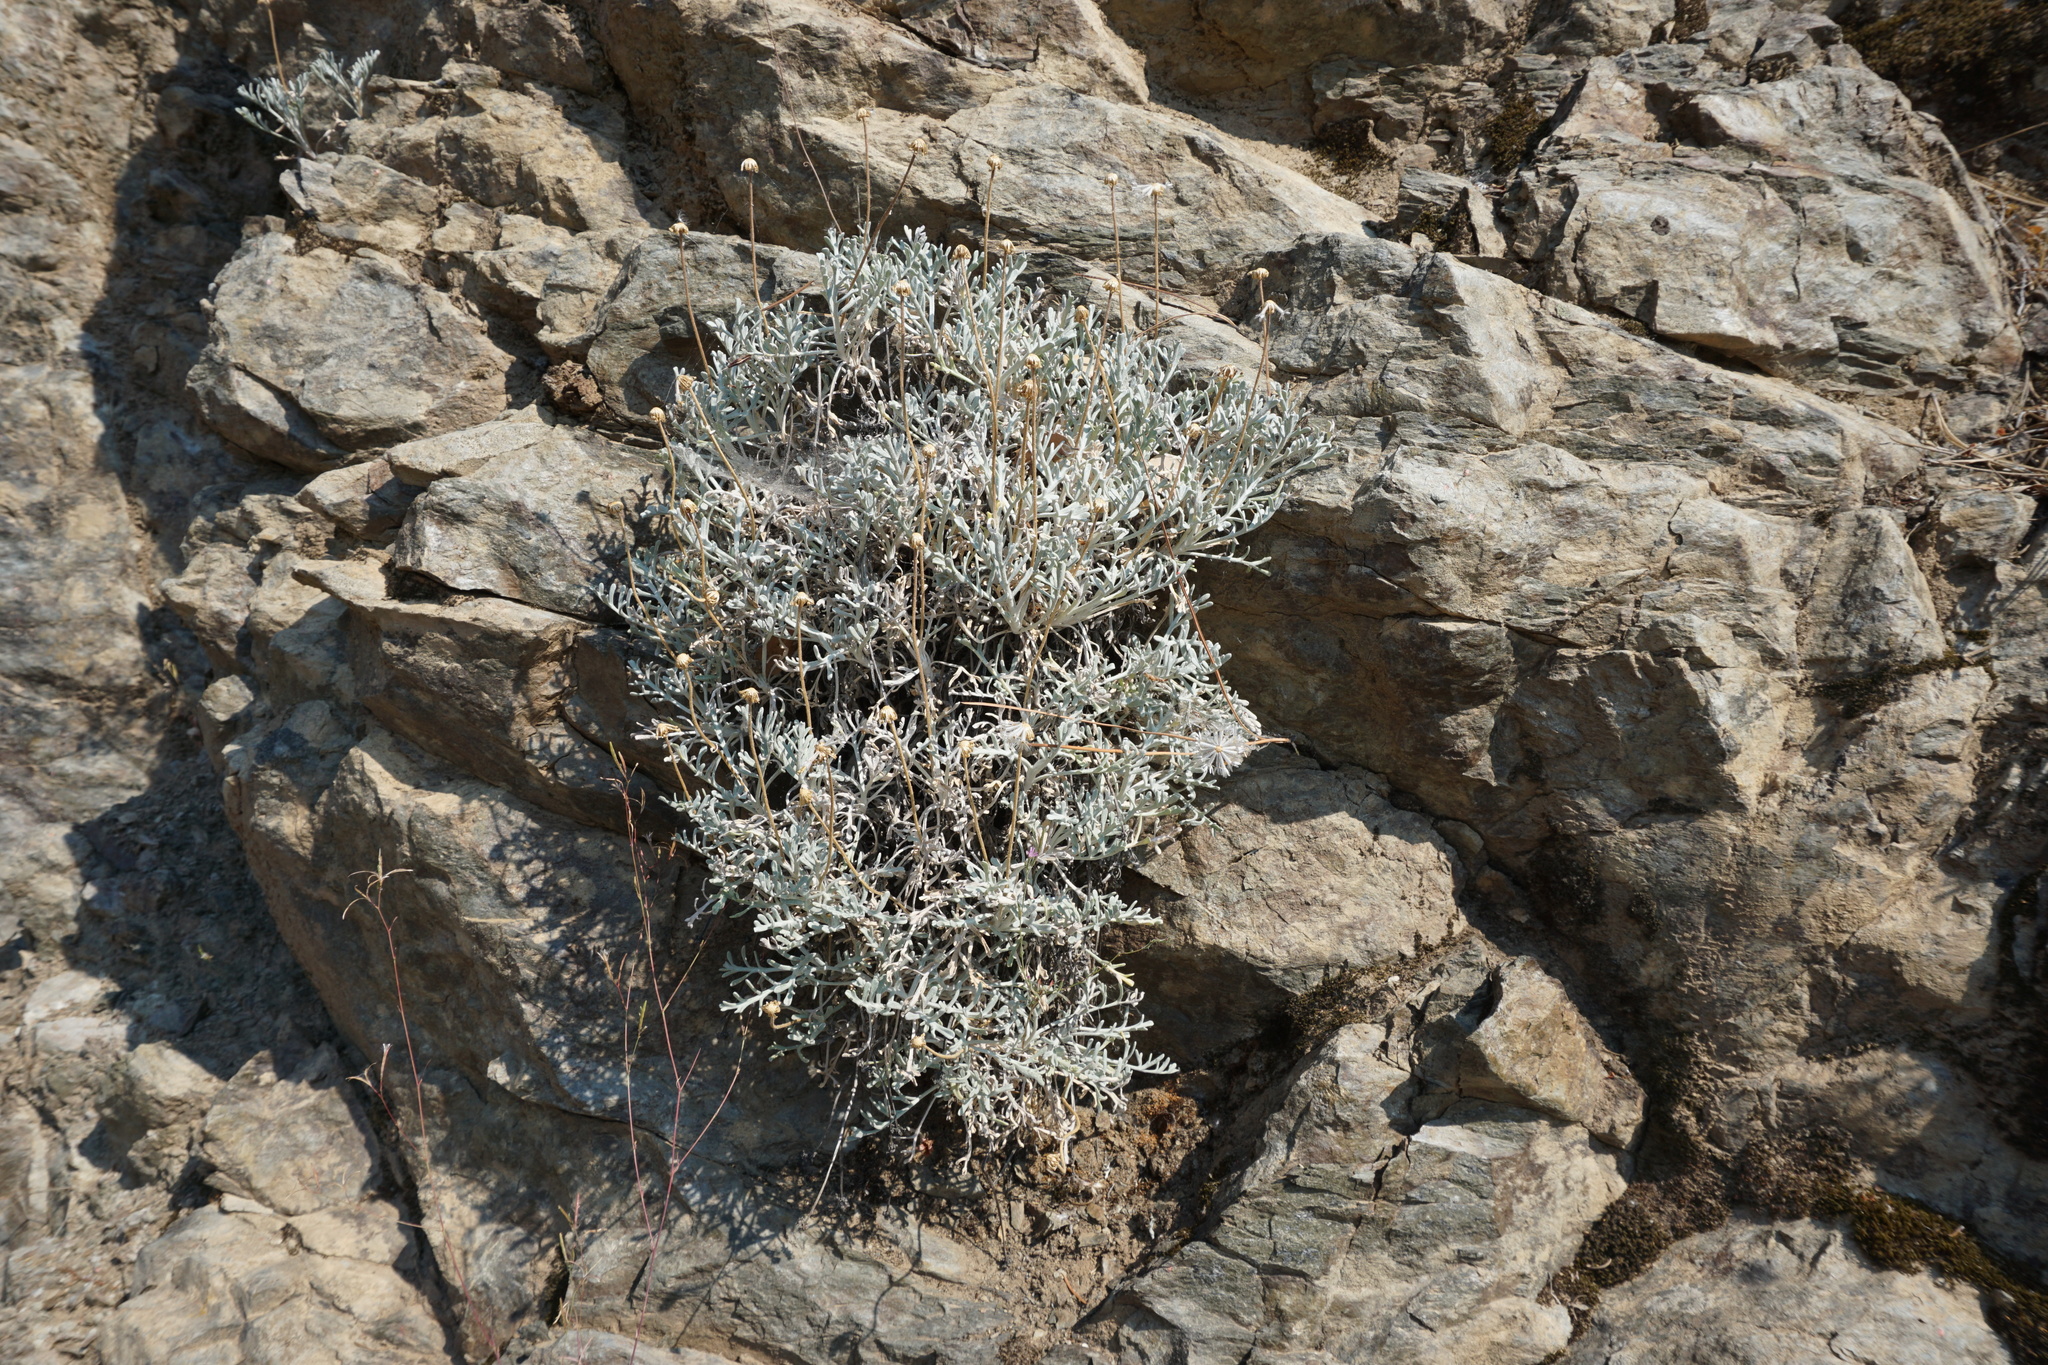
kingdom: Plantae
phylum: Tracheophyta
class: Magnoliopsida
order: Asterales
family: Asteraceae
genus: Chaenactis
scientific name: Chaenactis suffrutescens
